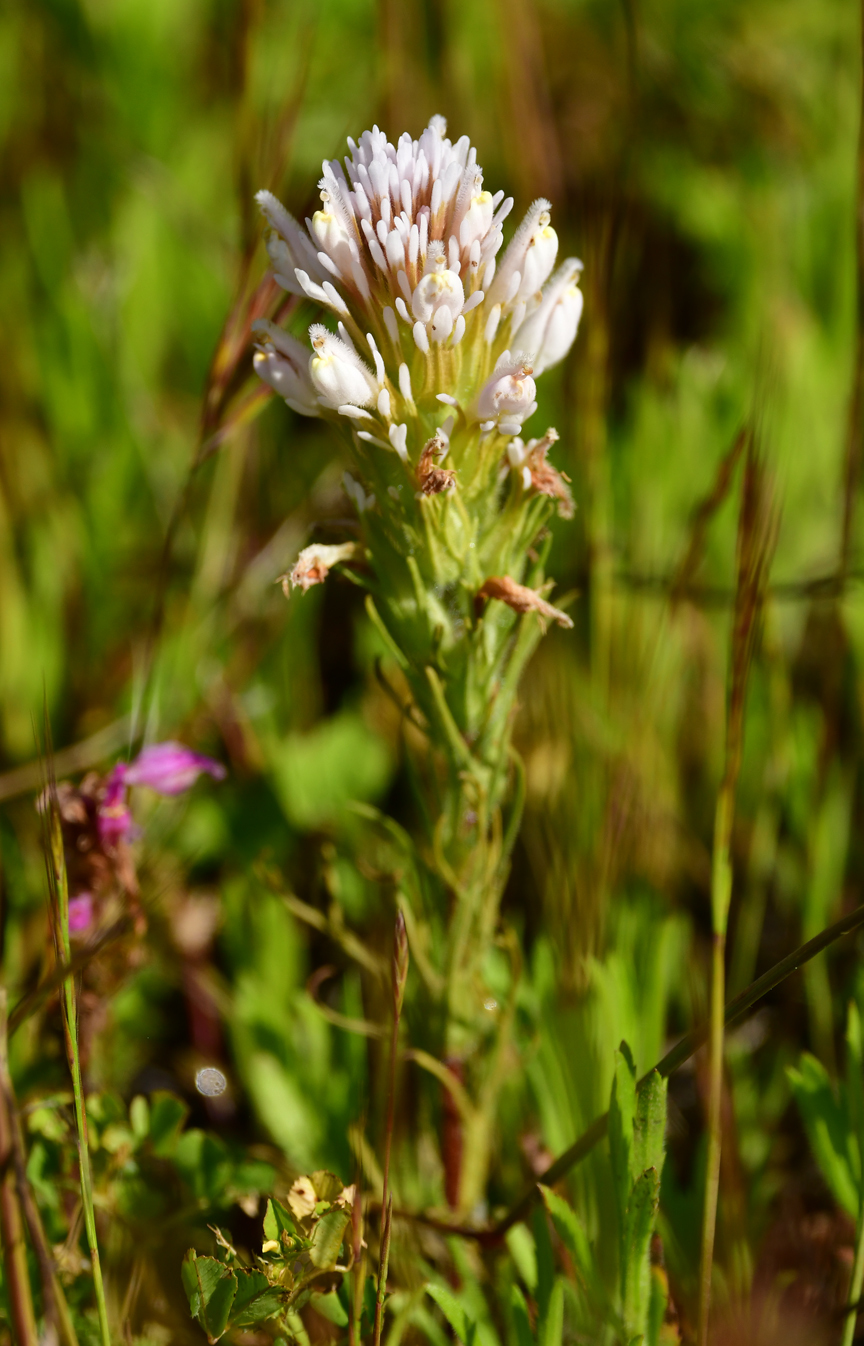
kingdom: Plantae
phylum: Tracheophyta
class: Magnoliopsida
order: Lamiales
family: Orobanchaceae
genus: Castilleja
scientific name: Castilleja exserta
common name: Purple owl-clover
